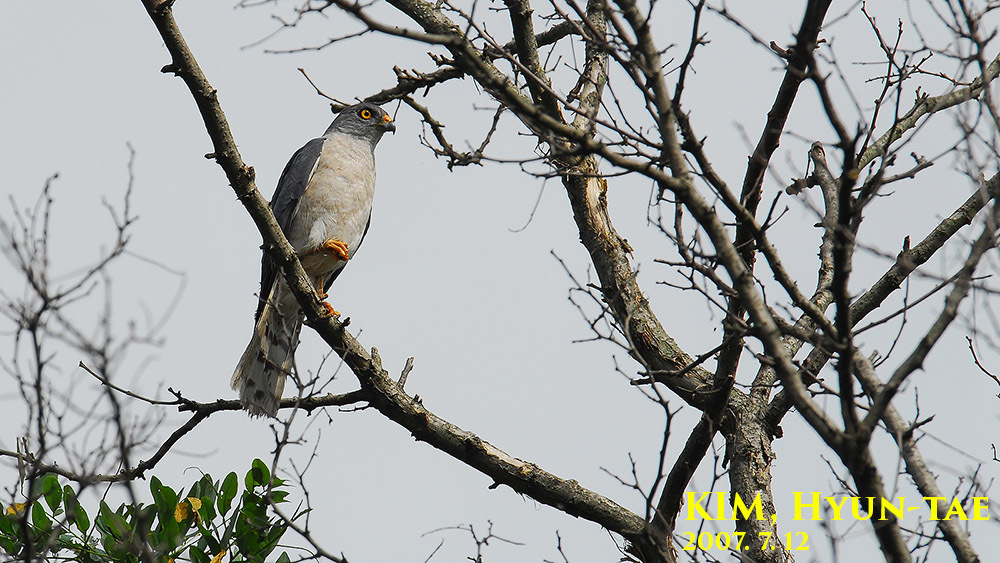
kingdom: Animalia
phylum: Chordata
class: Aves
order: Accipitriformes
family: Accipitridae
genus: Accipiter
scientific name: Accipiter soloensis
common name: Chinese sparrowhawk
